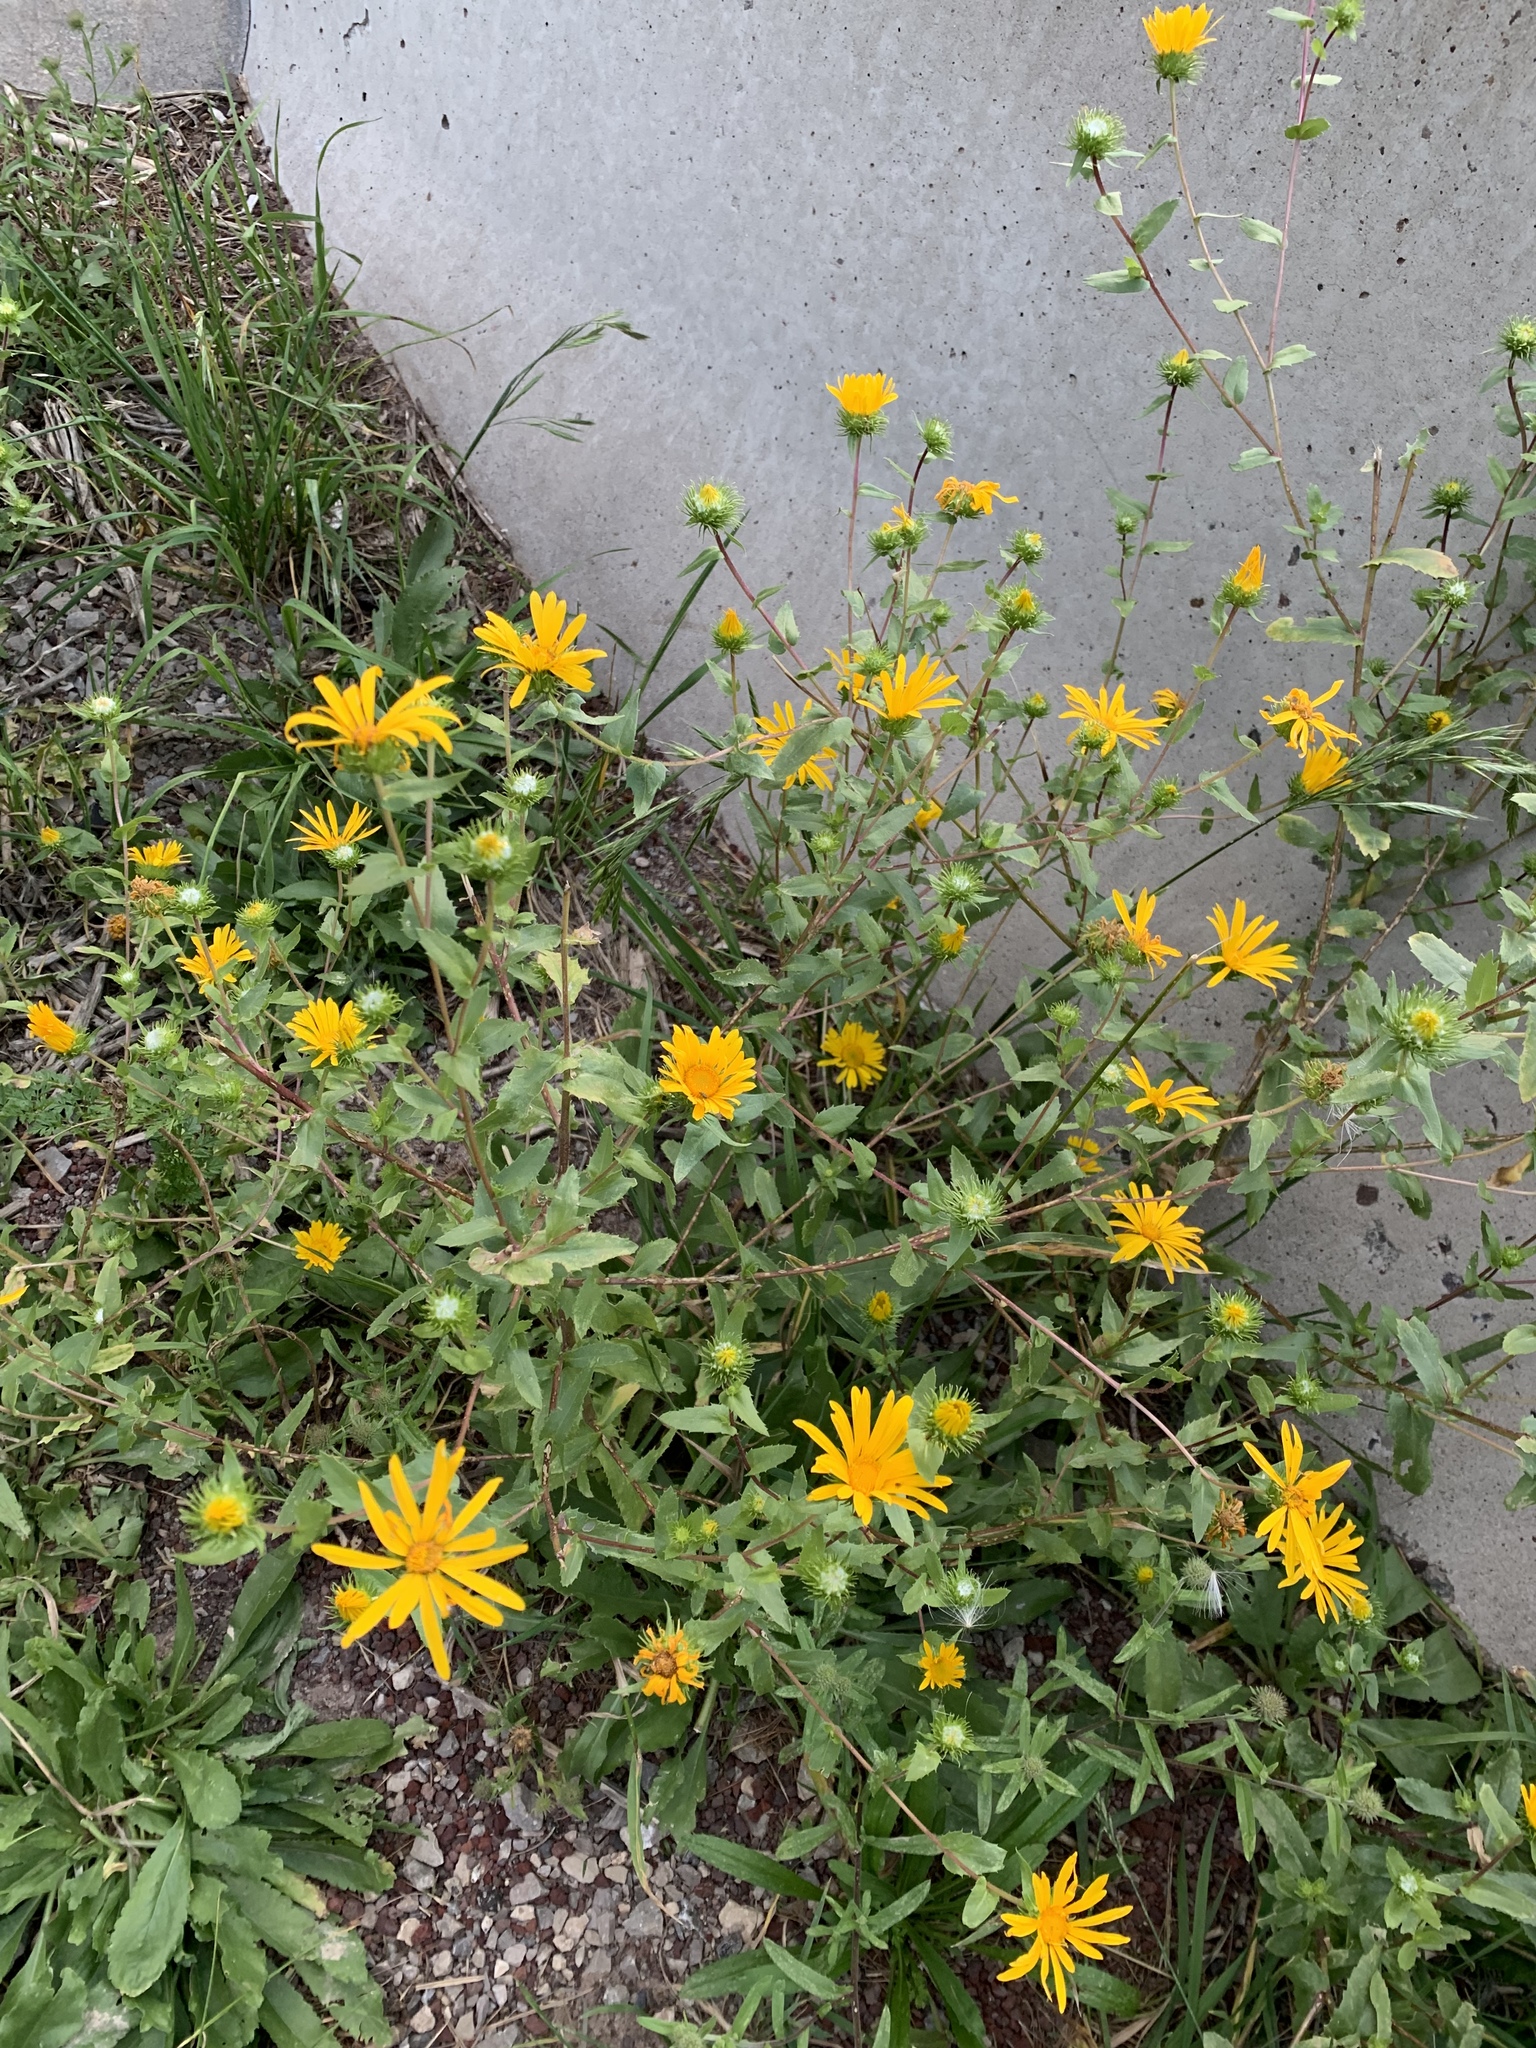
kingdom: Plantae
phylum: Tracheophyta
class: Magnoliopsida
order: Asterales
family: Asteraceae
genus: Grindelia
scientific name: Grindelia scabra
